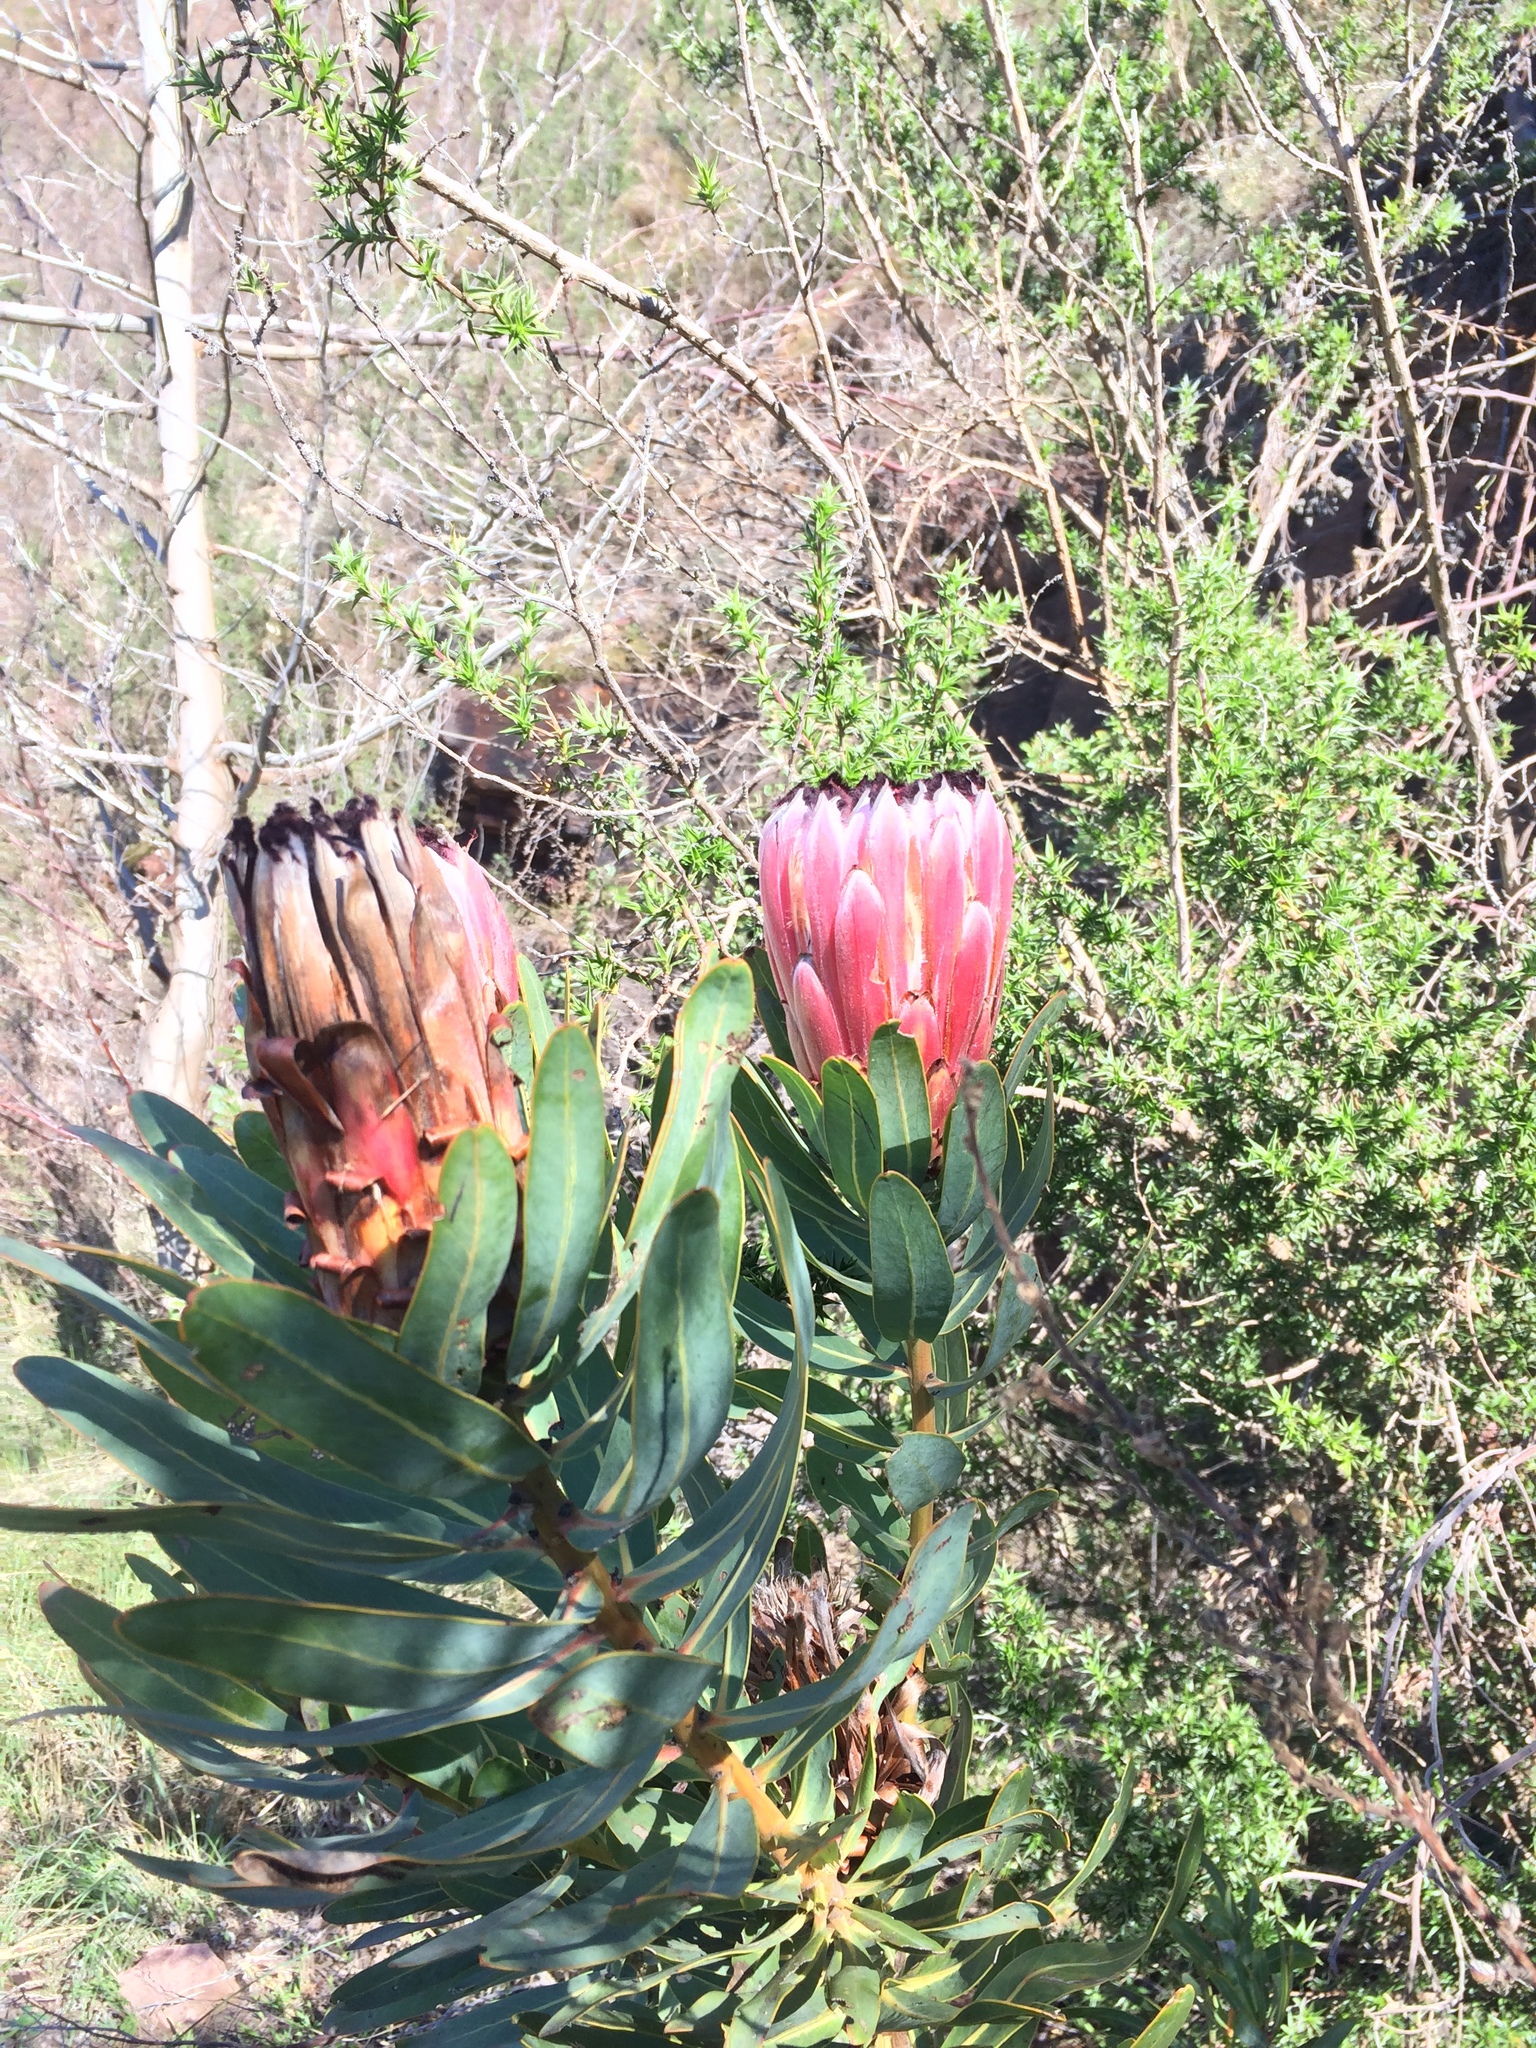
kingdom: Plantae
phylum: Tracheophyta
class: Magnoliopsida
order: Proteales
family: Proteaceae
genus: Protea
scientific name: Protea
